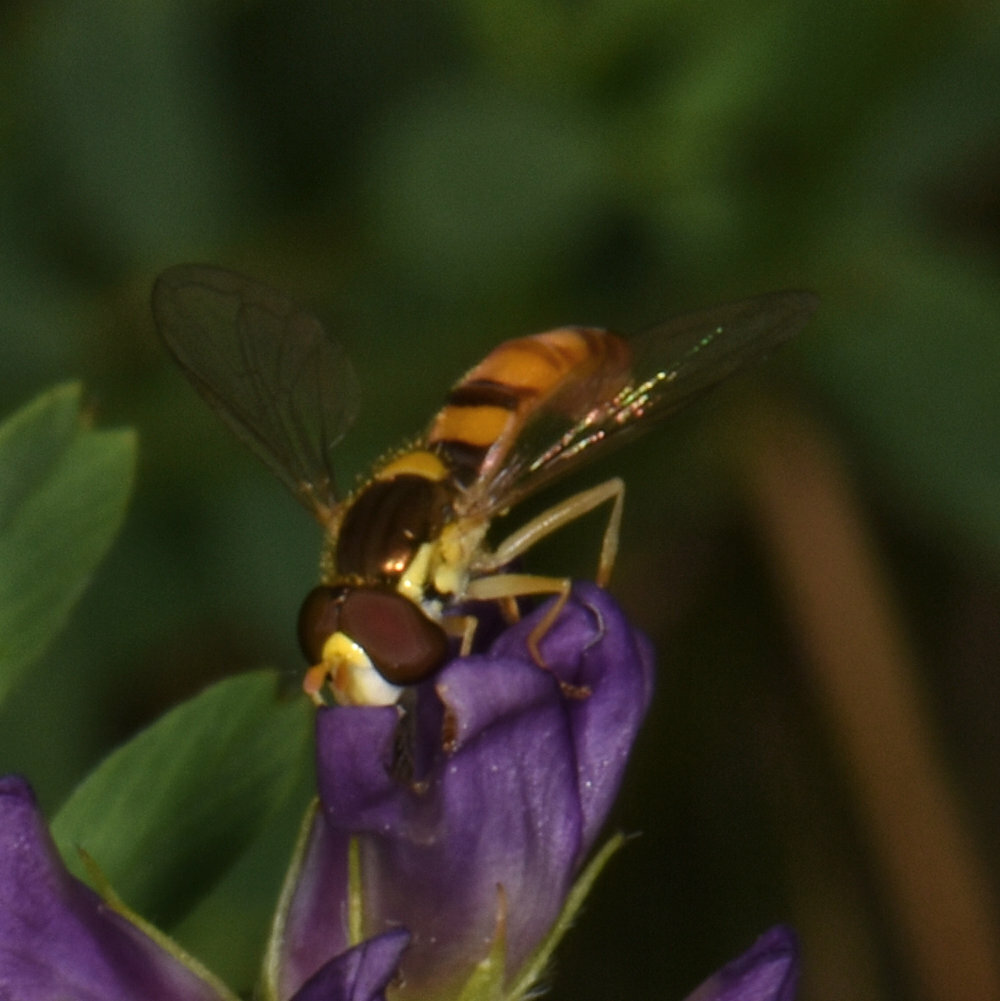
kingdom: Animalia
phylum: Arthropoda
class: Insecta
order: Diptera
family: Syrphidae
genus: Sphaerophoria
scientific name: Sphaerophoria contigua
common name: Tufted globetail
